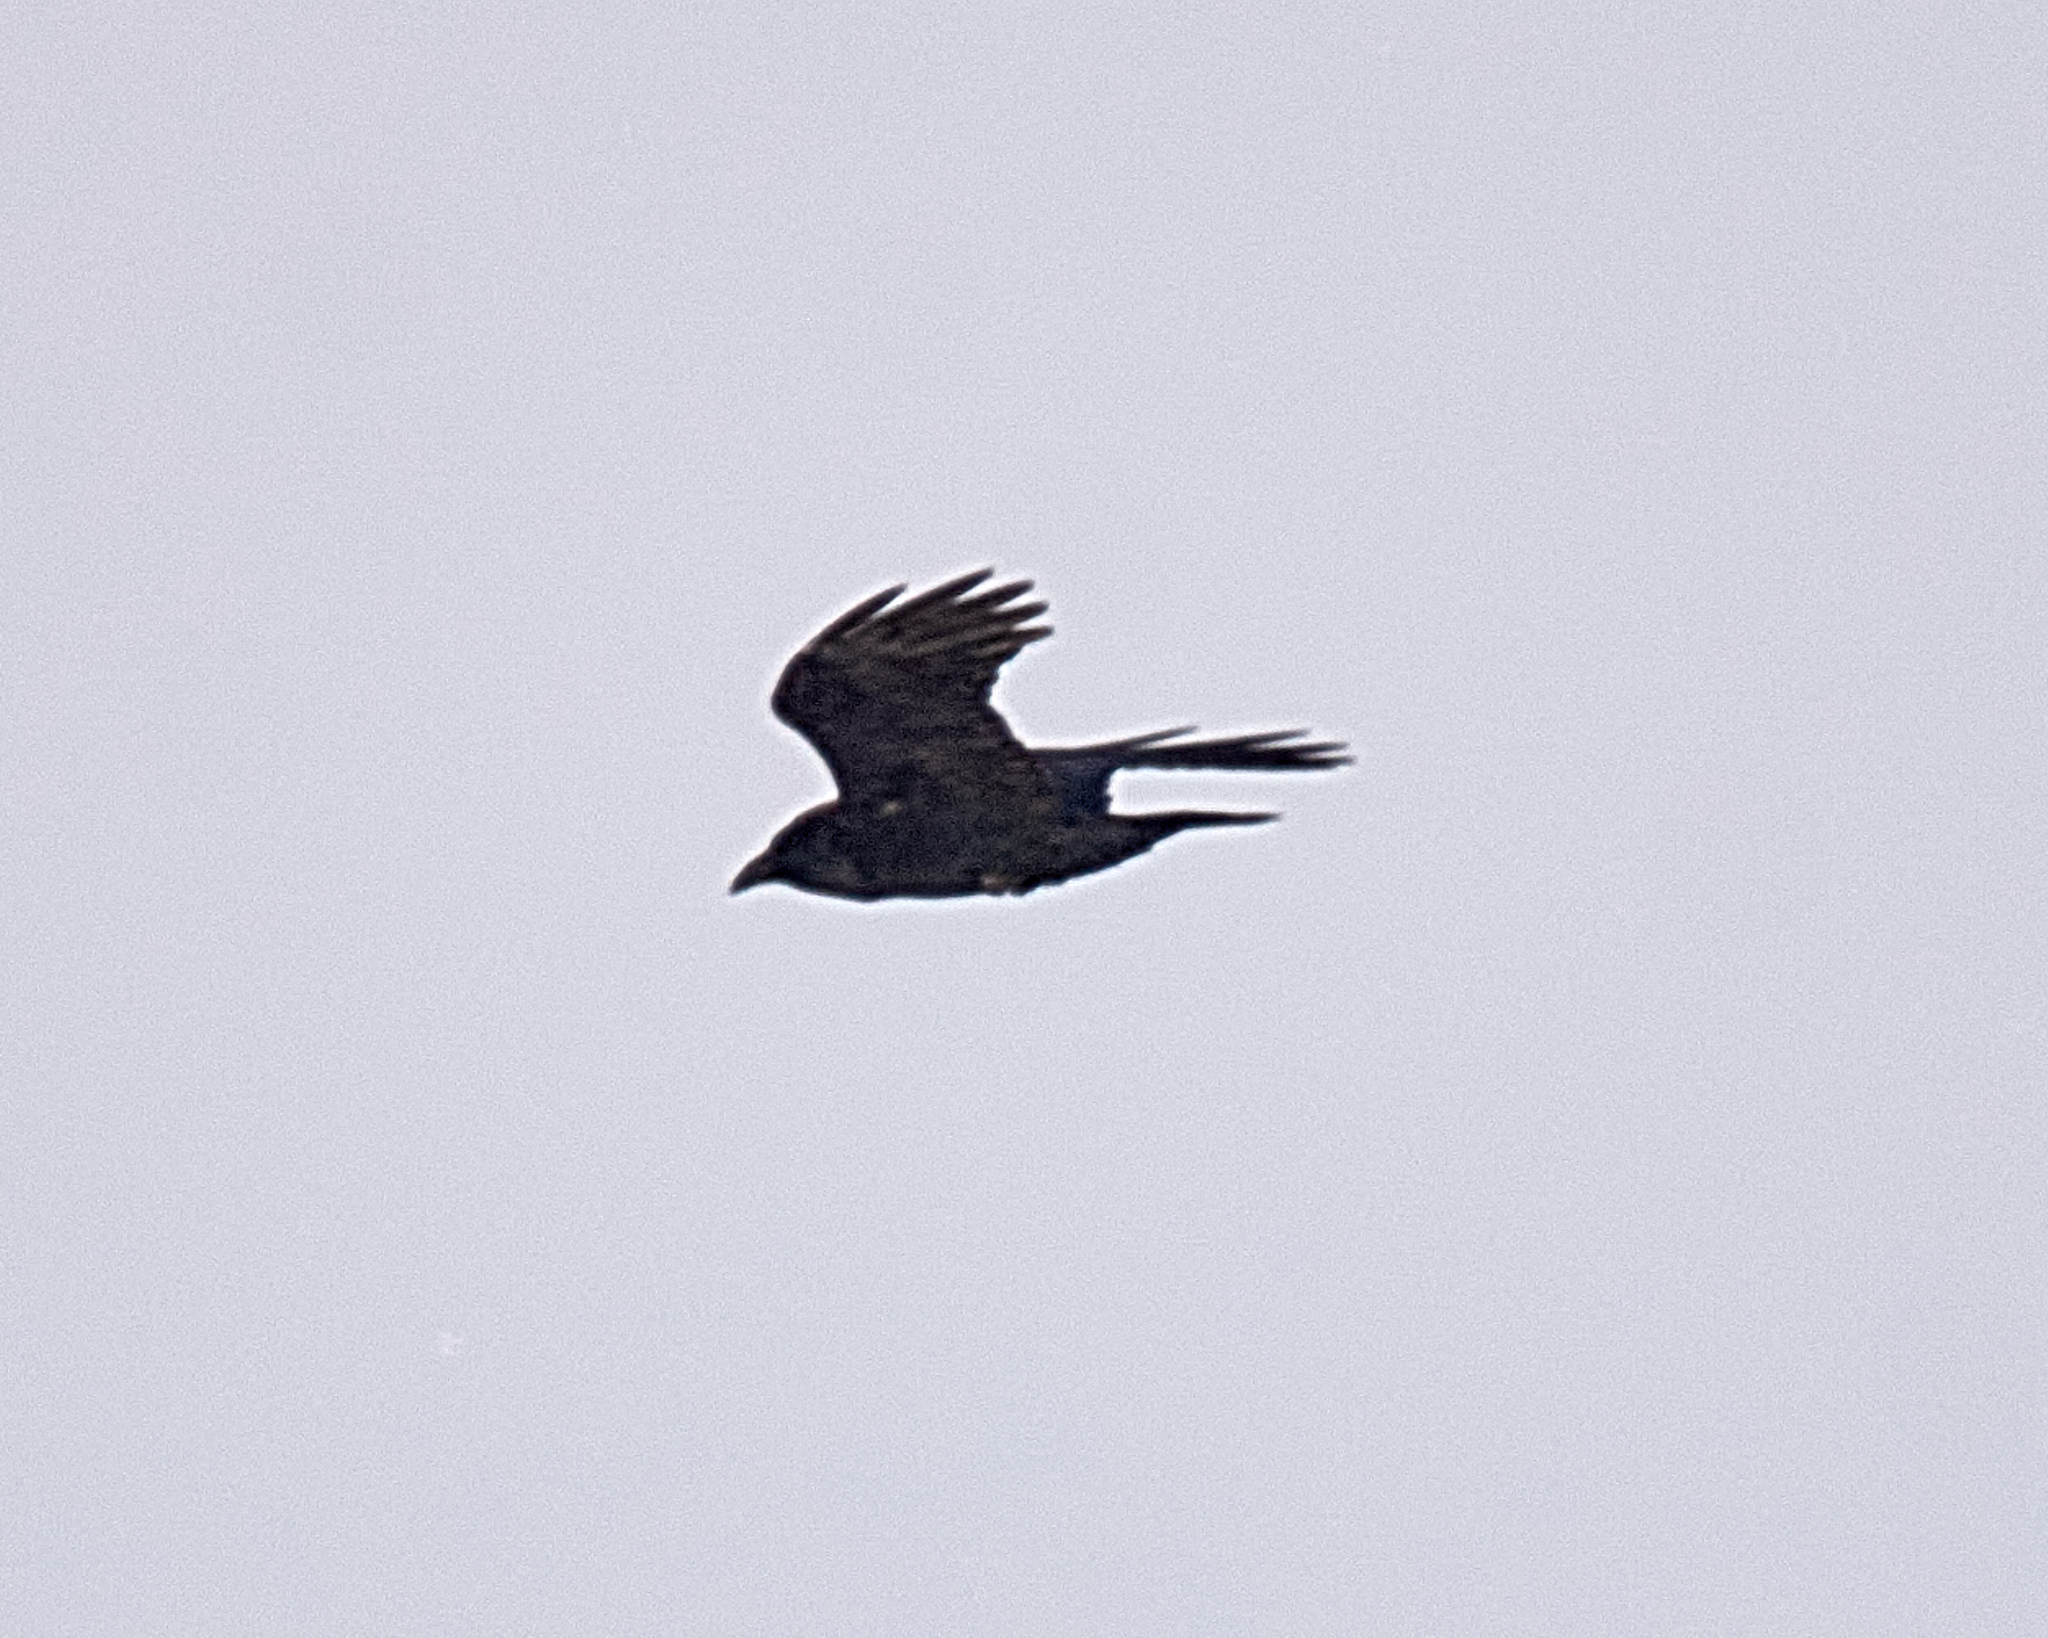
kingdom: Animalia
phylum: Chordata
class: Aves
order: Passeriformes
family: Corvidae
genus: Corvus
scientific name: Corvus corax
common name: Common raven
